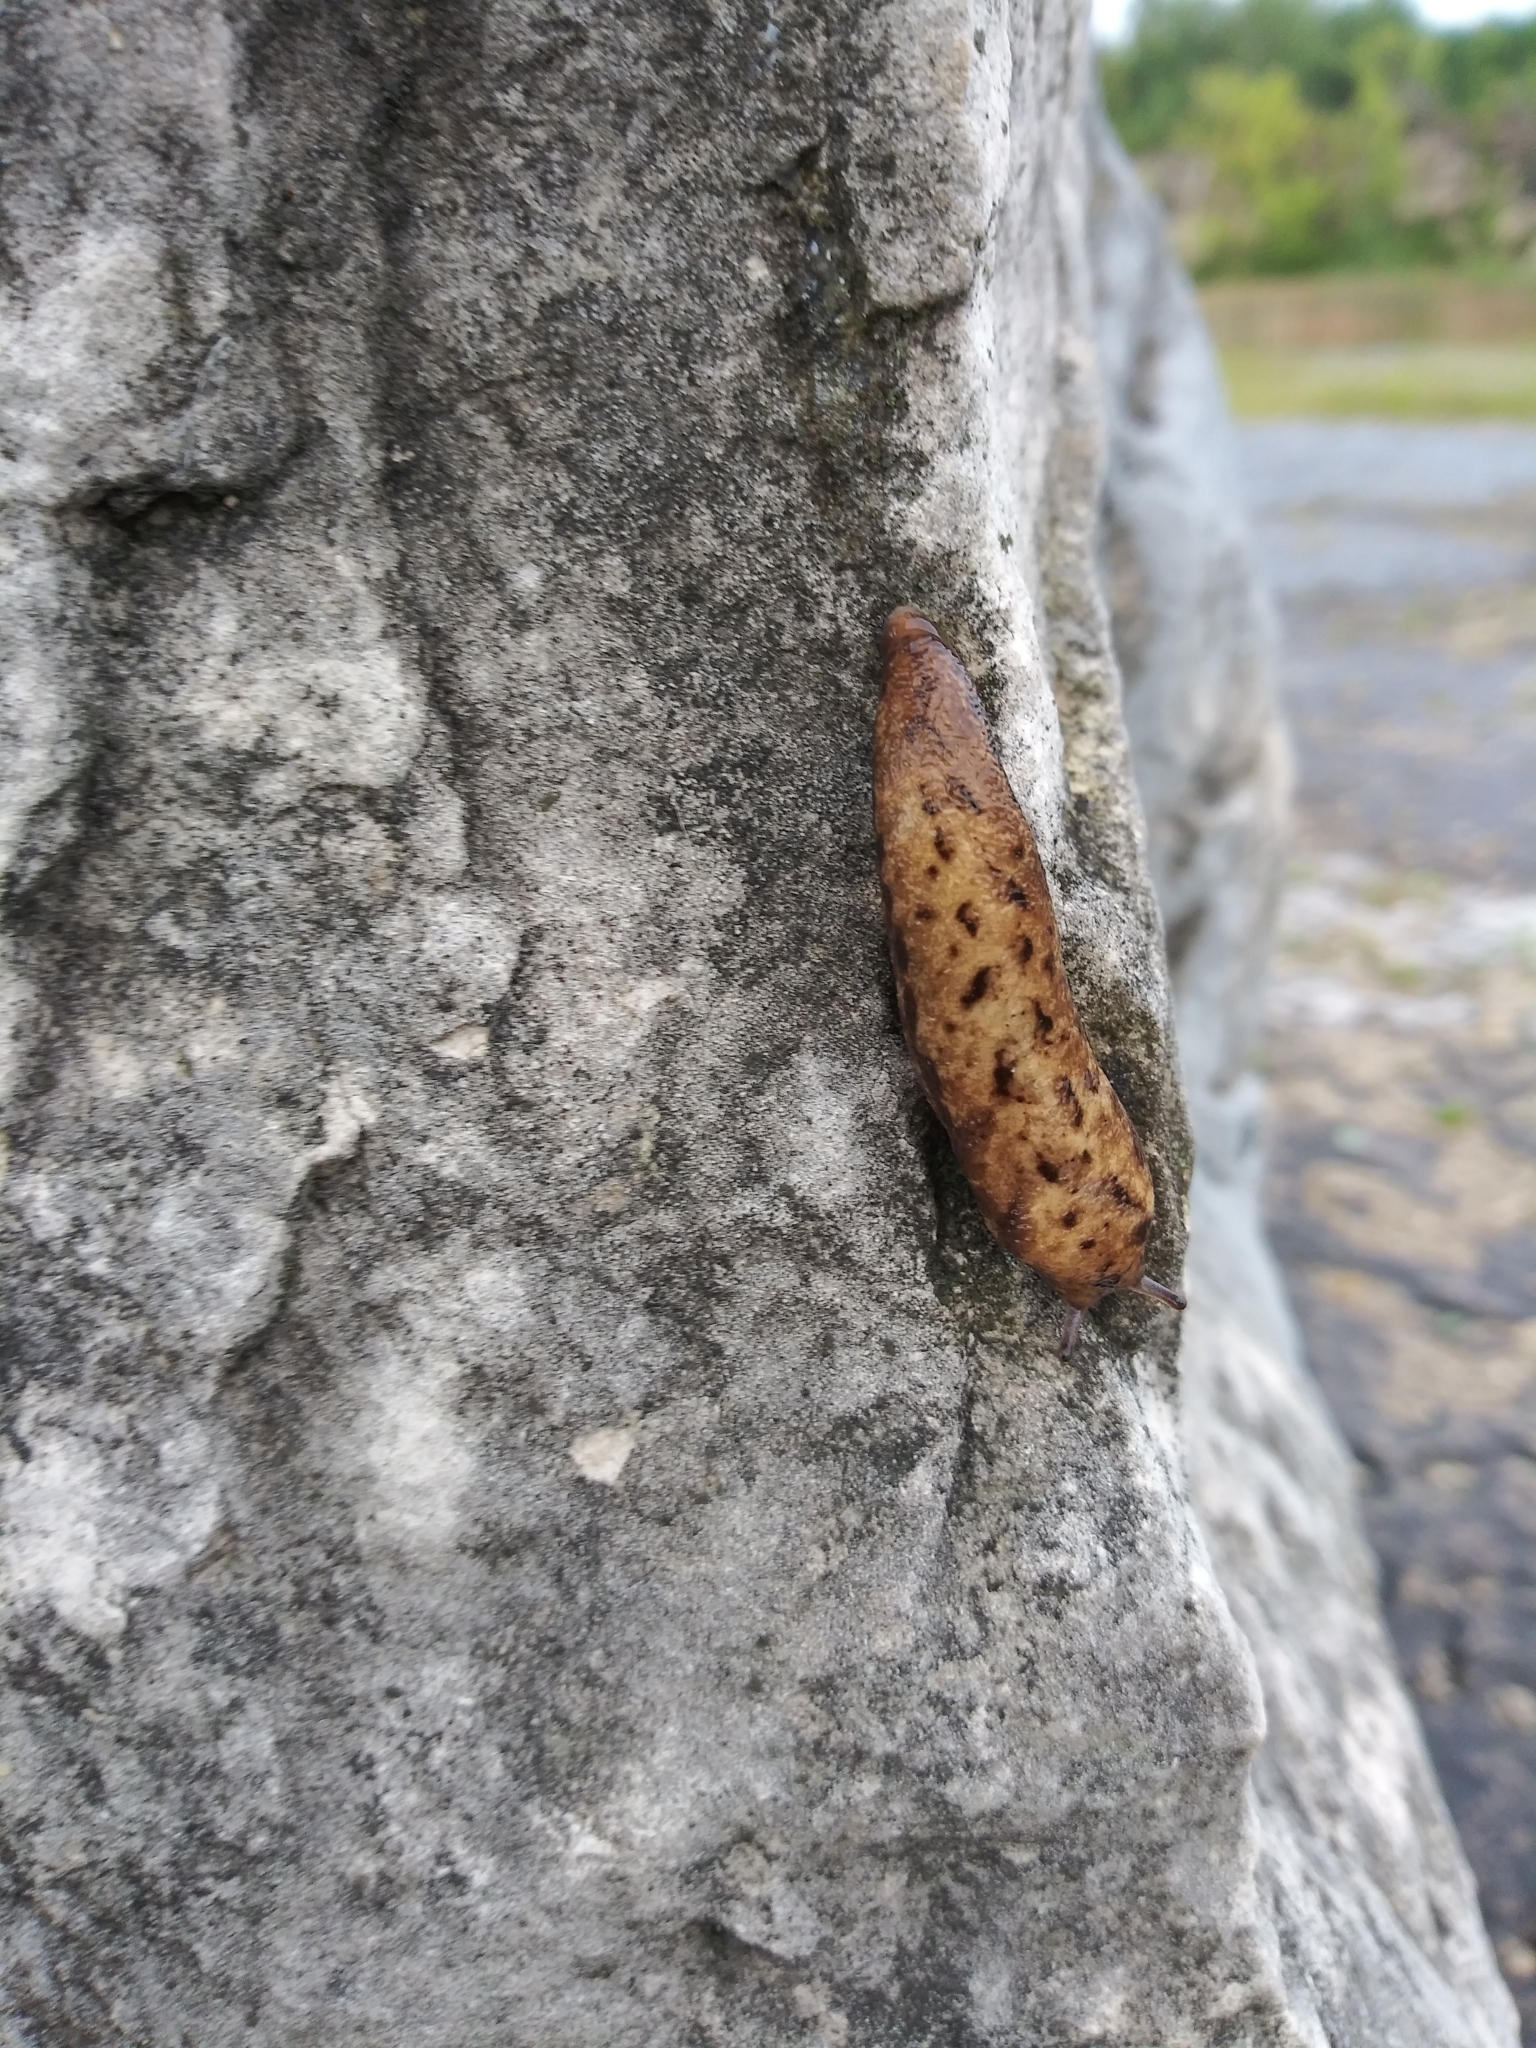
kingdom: Animalia
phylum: Mollusca
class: Gastropoda
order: Stylommatophora
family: Philomycidae
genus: Megapallifera
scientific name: Megapallifera mutabilis
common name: Changeable mantleslug
